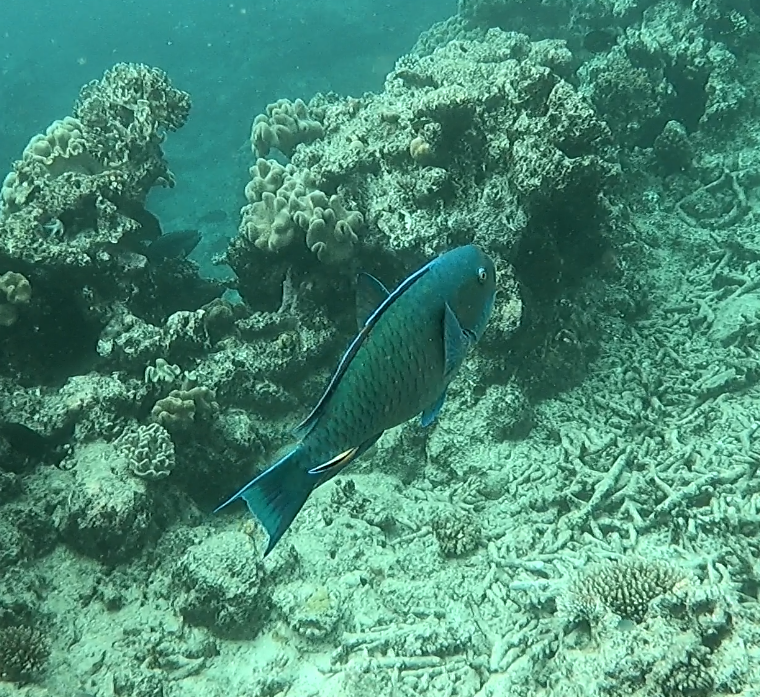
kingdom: Animalia
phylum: Chordata
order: Perciformes
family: Scaridae
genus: Chlorurus
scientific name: Chlorurus microrhinos
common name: Steephead parrotfish
